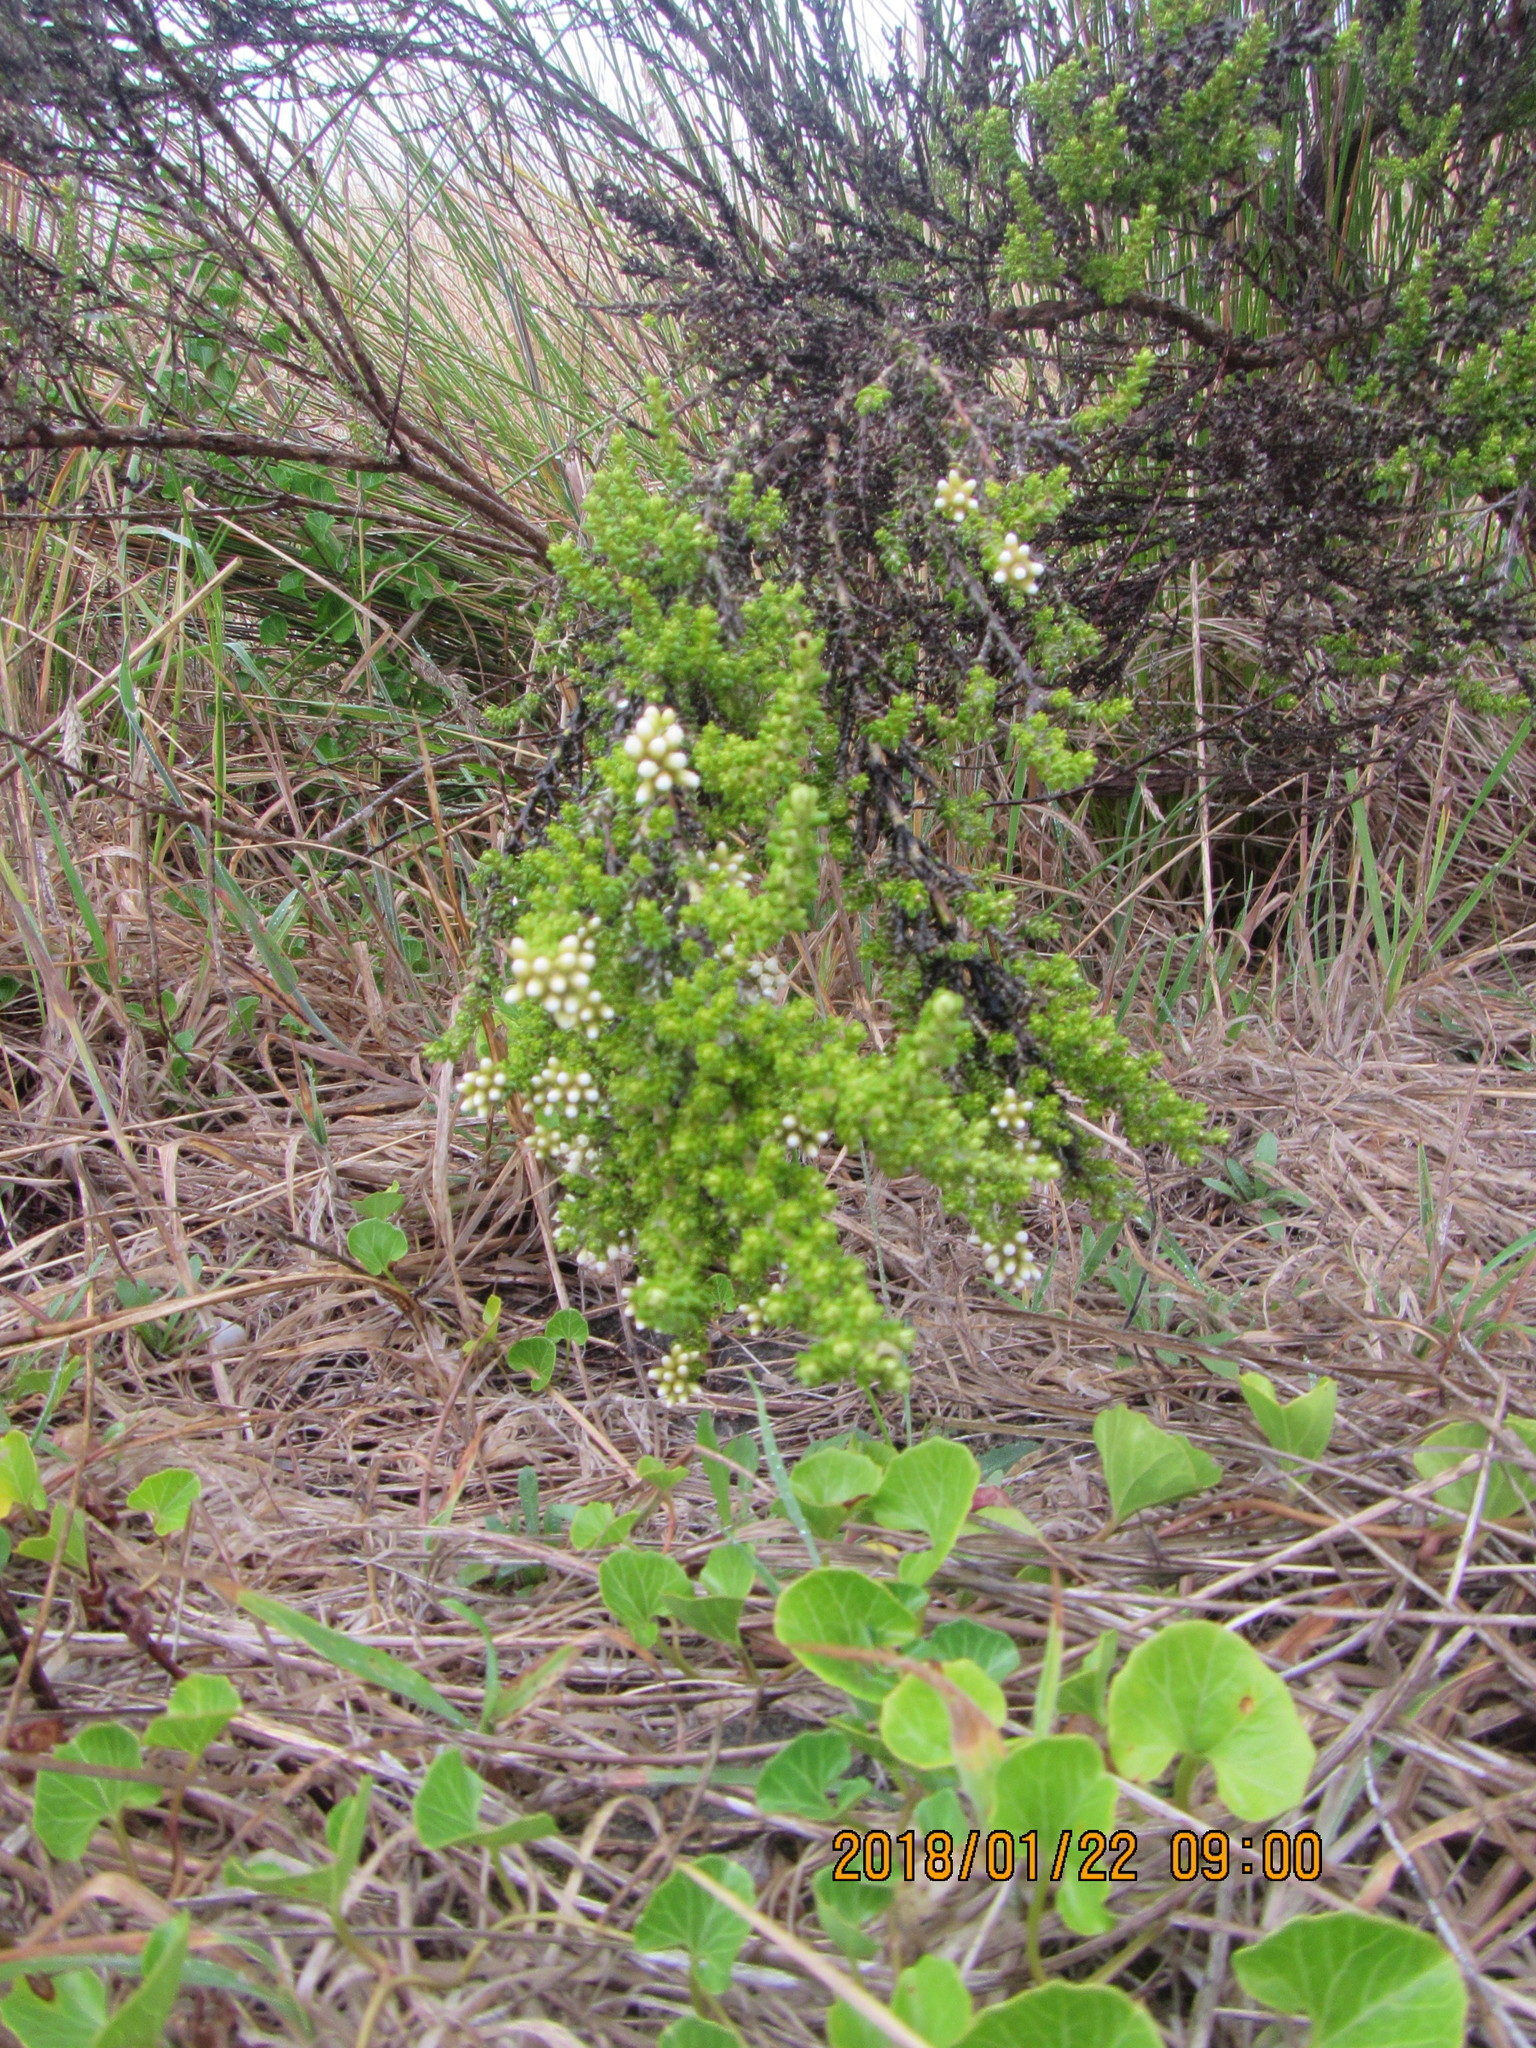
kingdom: Plantae
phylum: Tracheophyta
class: Magnoliopsida
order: Asterales
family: Asteraceae
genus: Ozothamnus
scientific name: Ozothamnus leptophyllus
